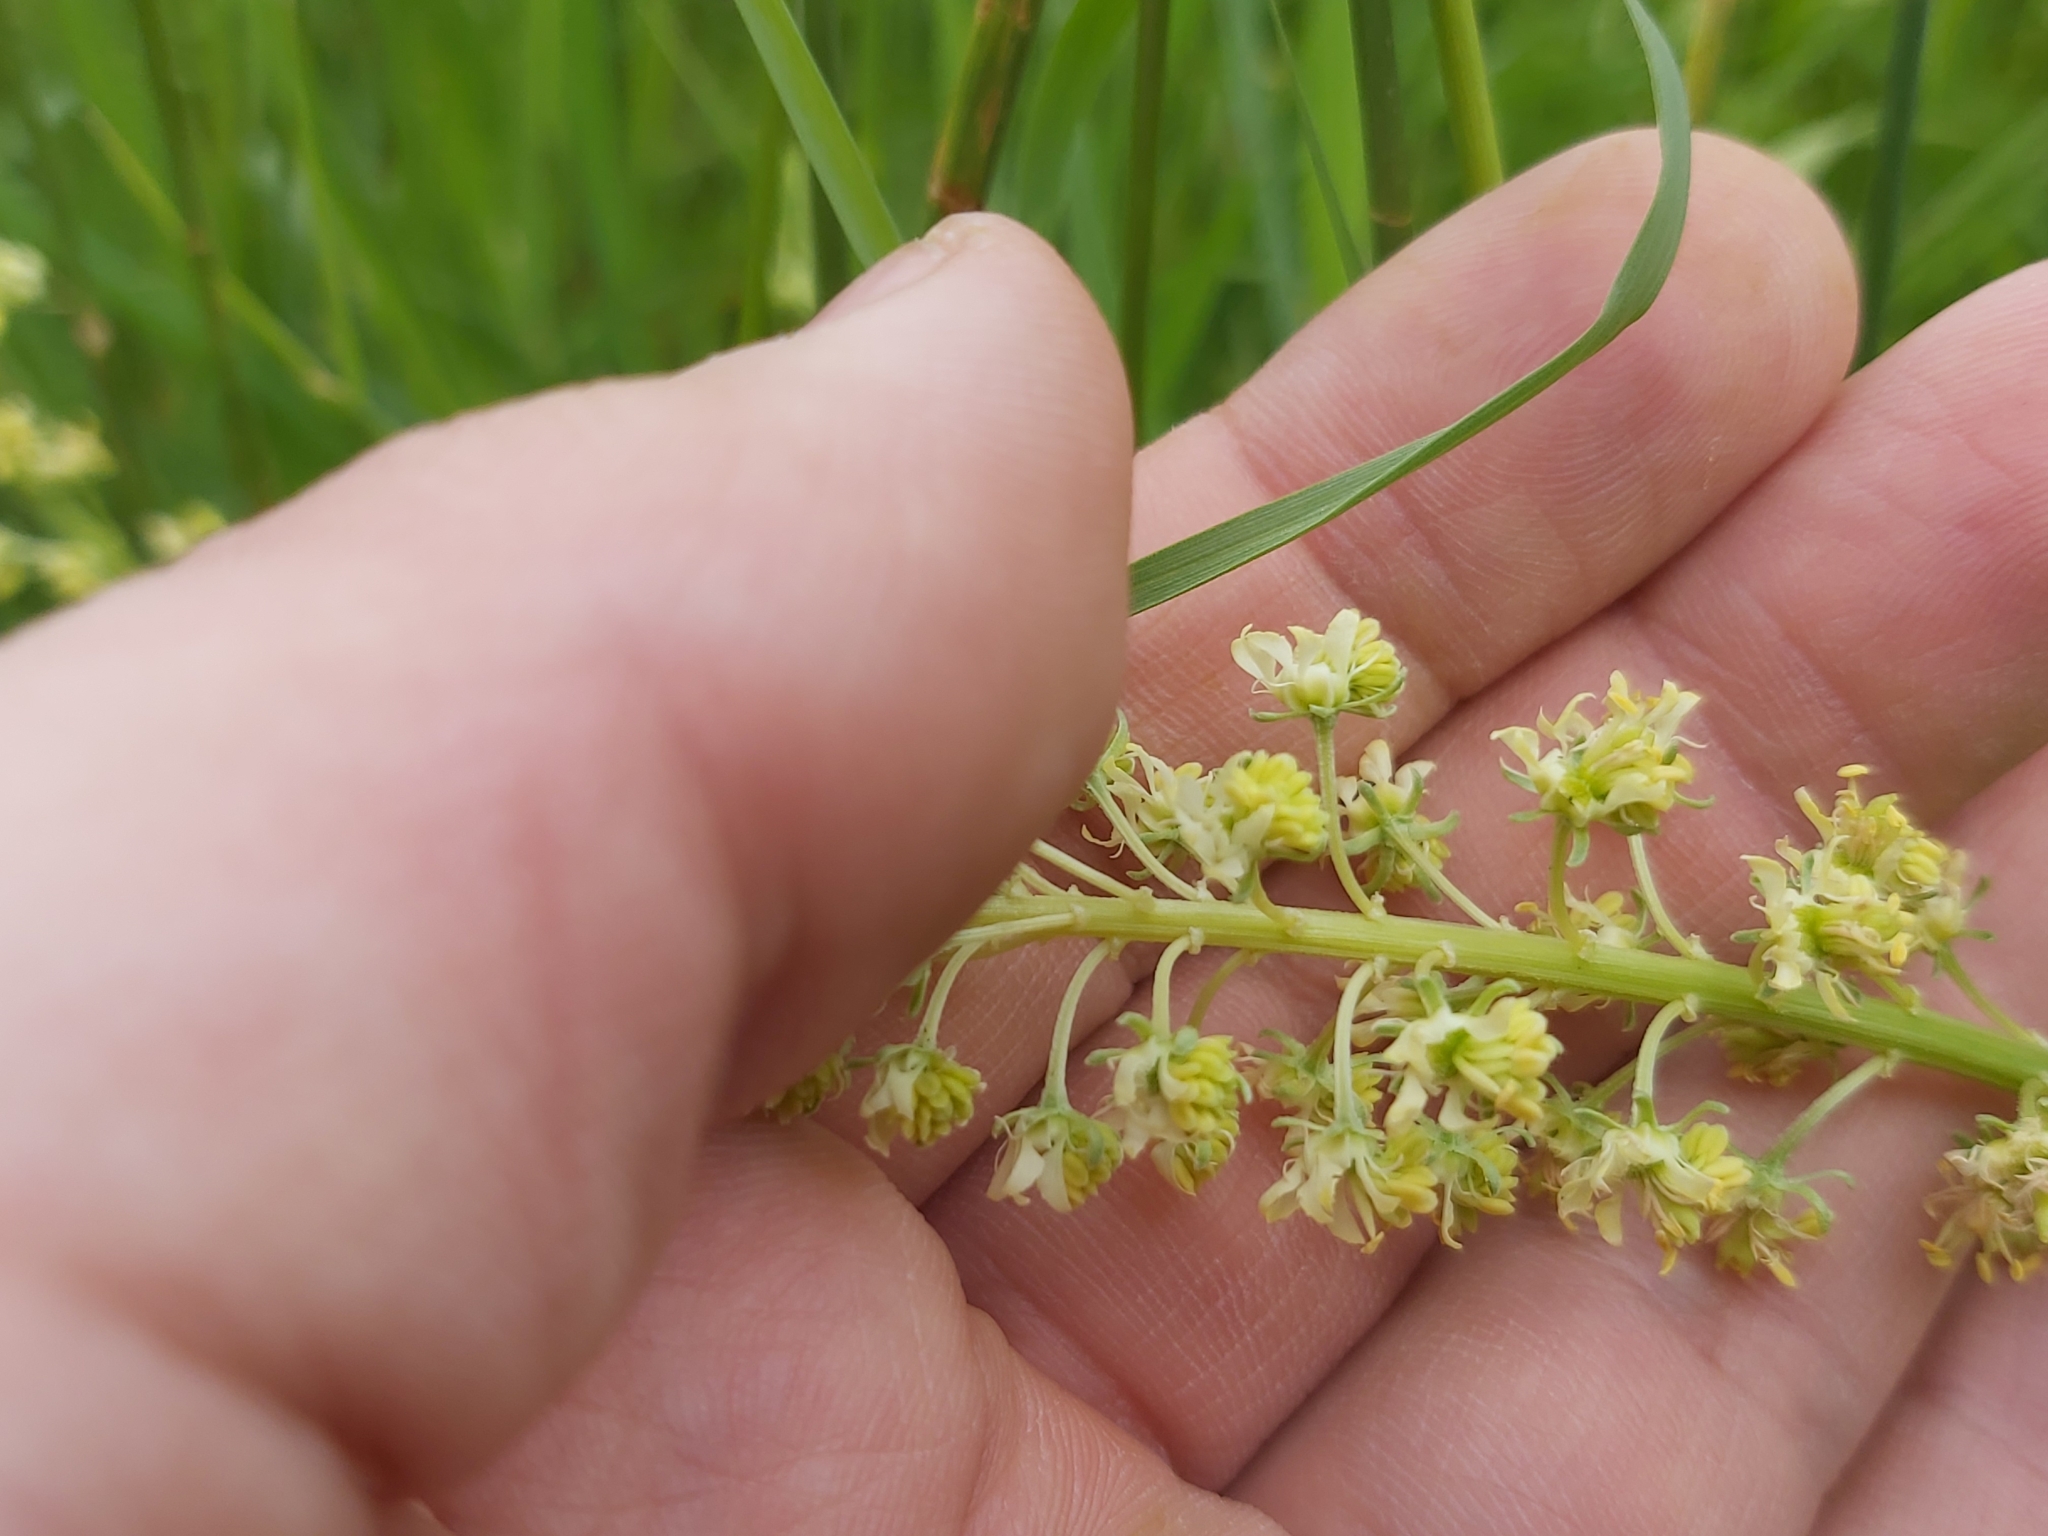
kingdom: Plantae
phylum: Tracheophyta
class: Magnoliopsida
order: Brassicales
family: Resedaceae
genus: Reseda
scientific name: Reseda lutea
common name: Wild mignonette
